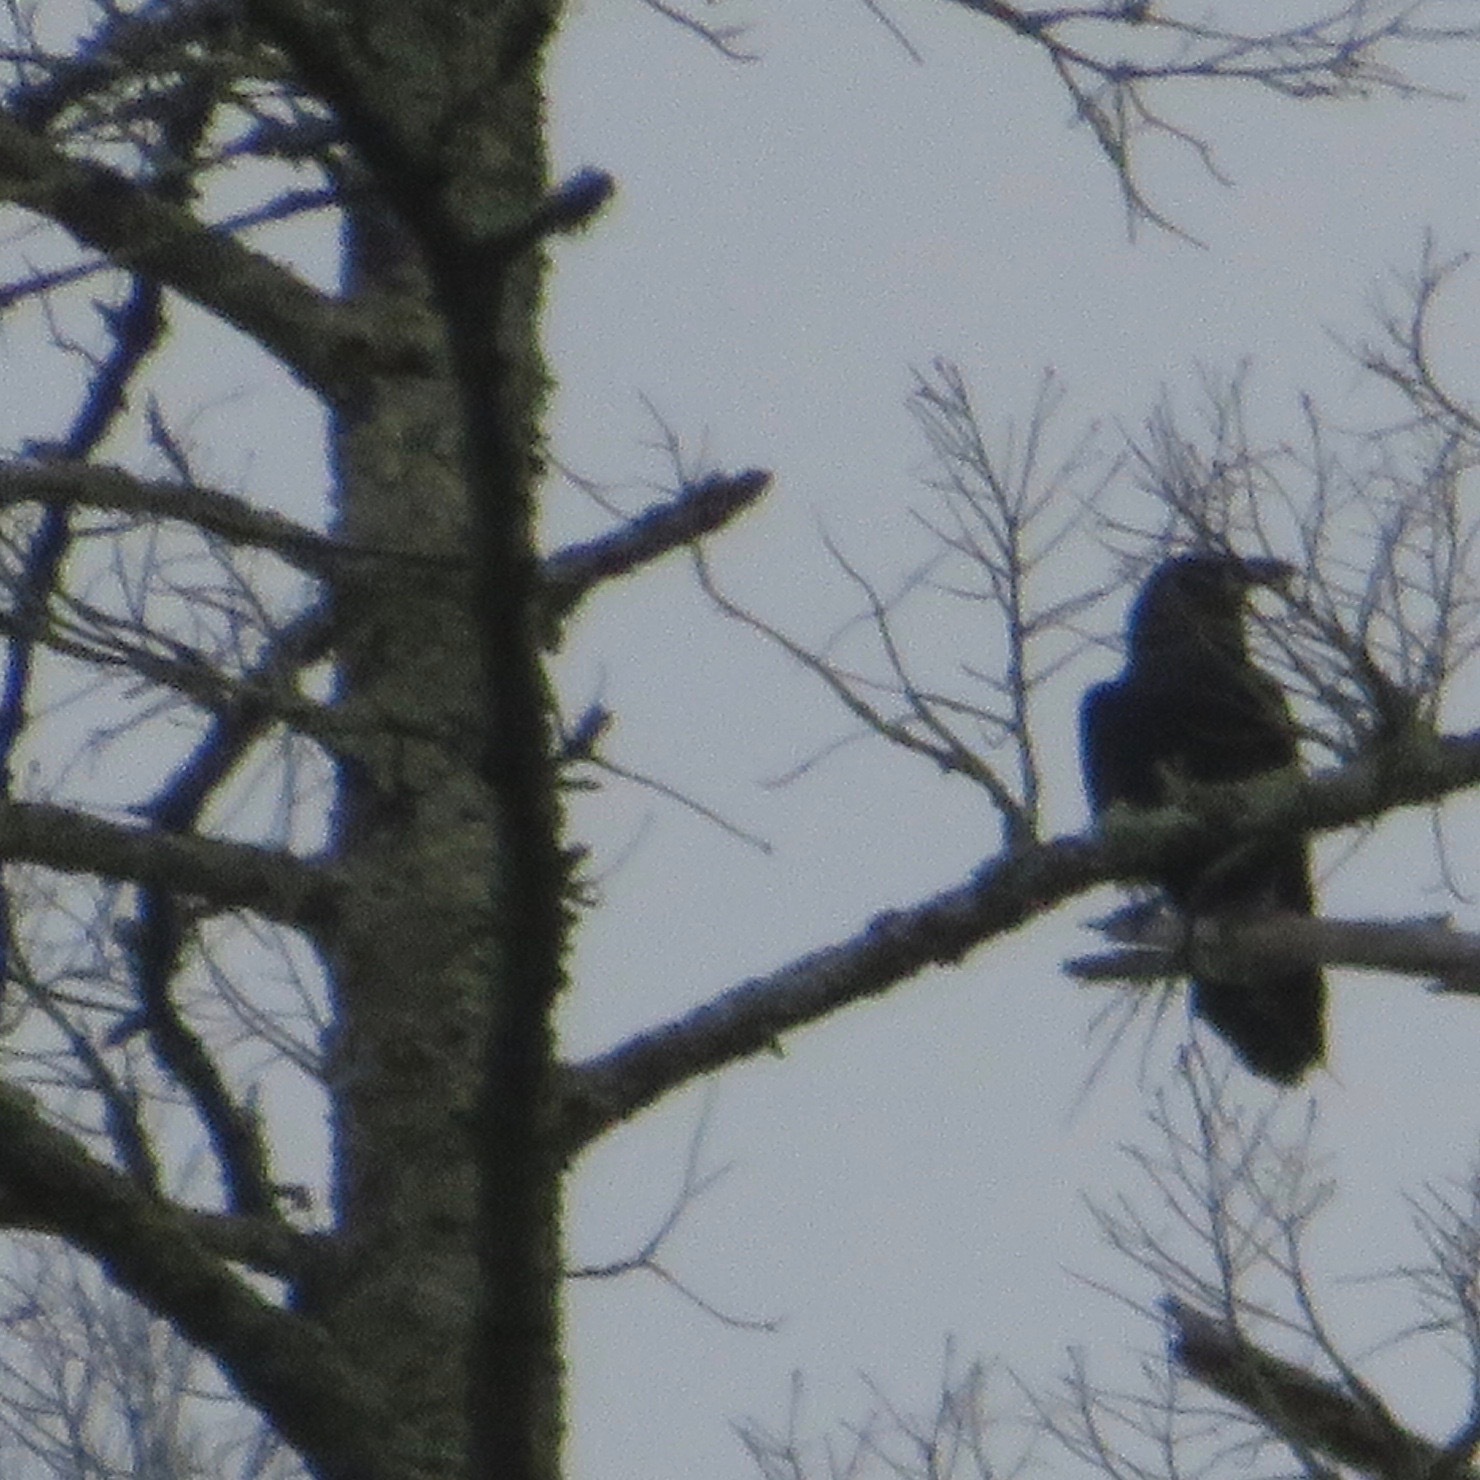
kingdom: Animalia
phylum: Chordata
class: Aves
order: Passeriformes
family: Corvidae
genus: Corvus
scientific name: Corvus corax
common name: Common raven
